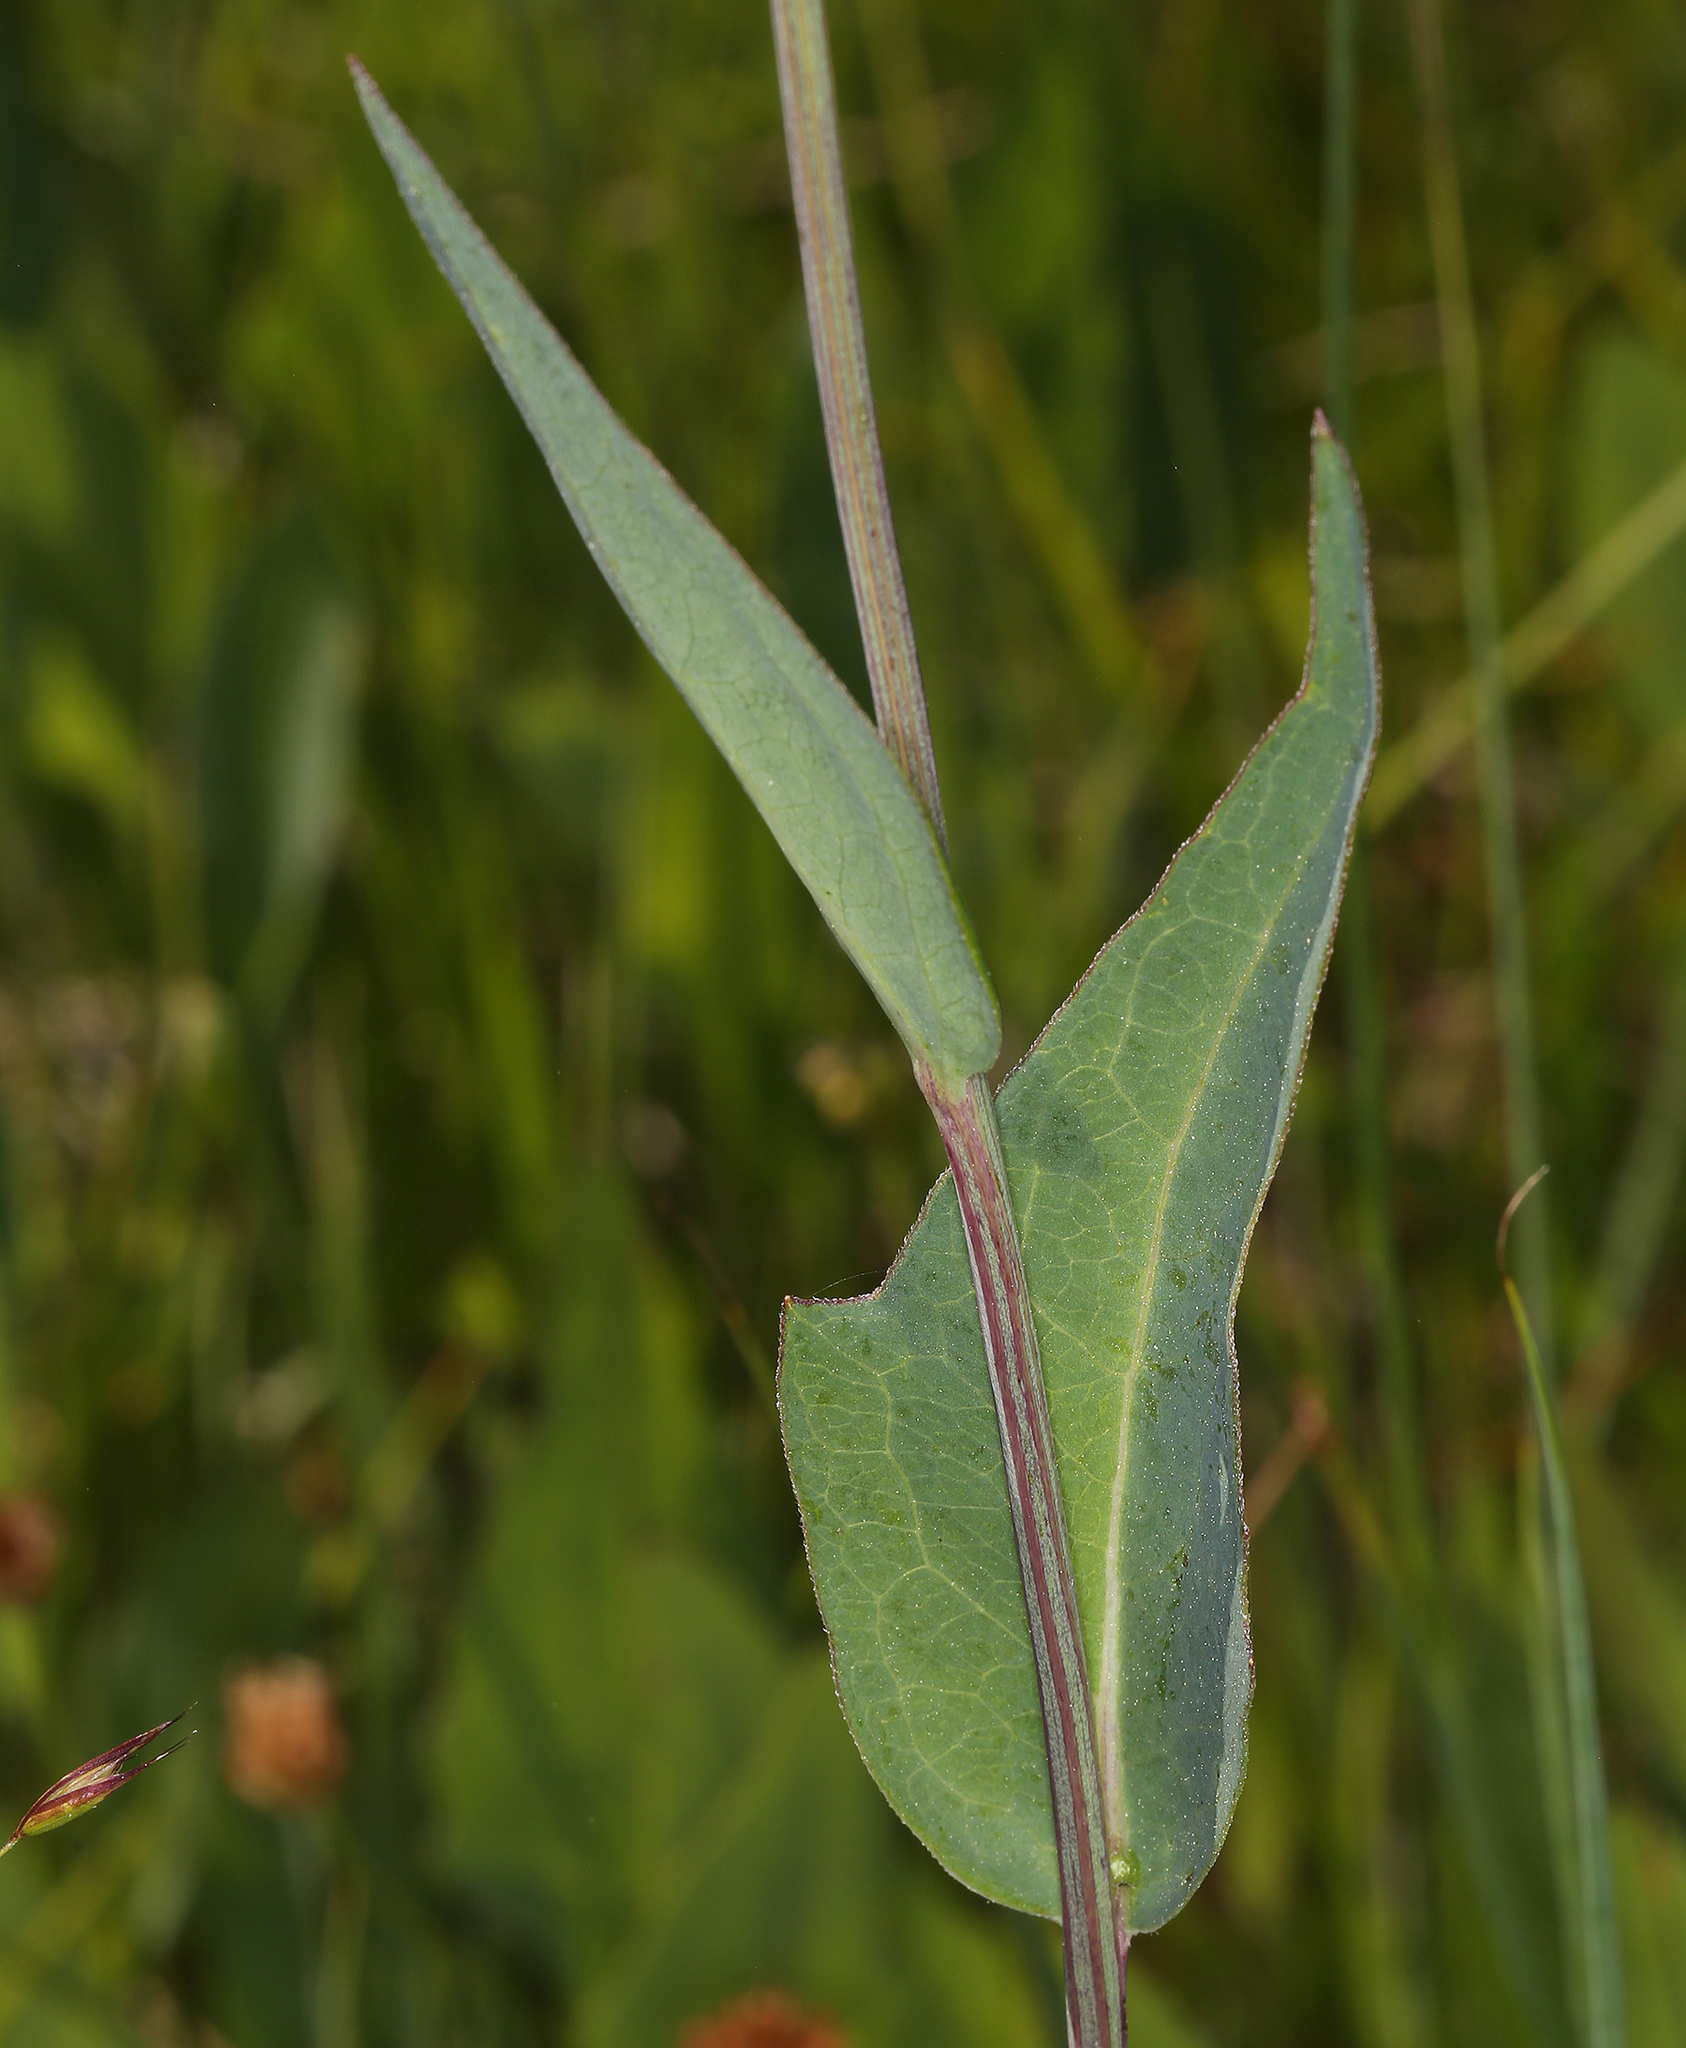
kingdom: Plantae
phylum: Tracheophyta
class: Magnoliopsida
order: Asterales
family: Asteraceae
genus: Rudbeckia
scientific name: Rudbeckia glaucescens
